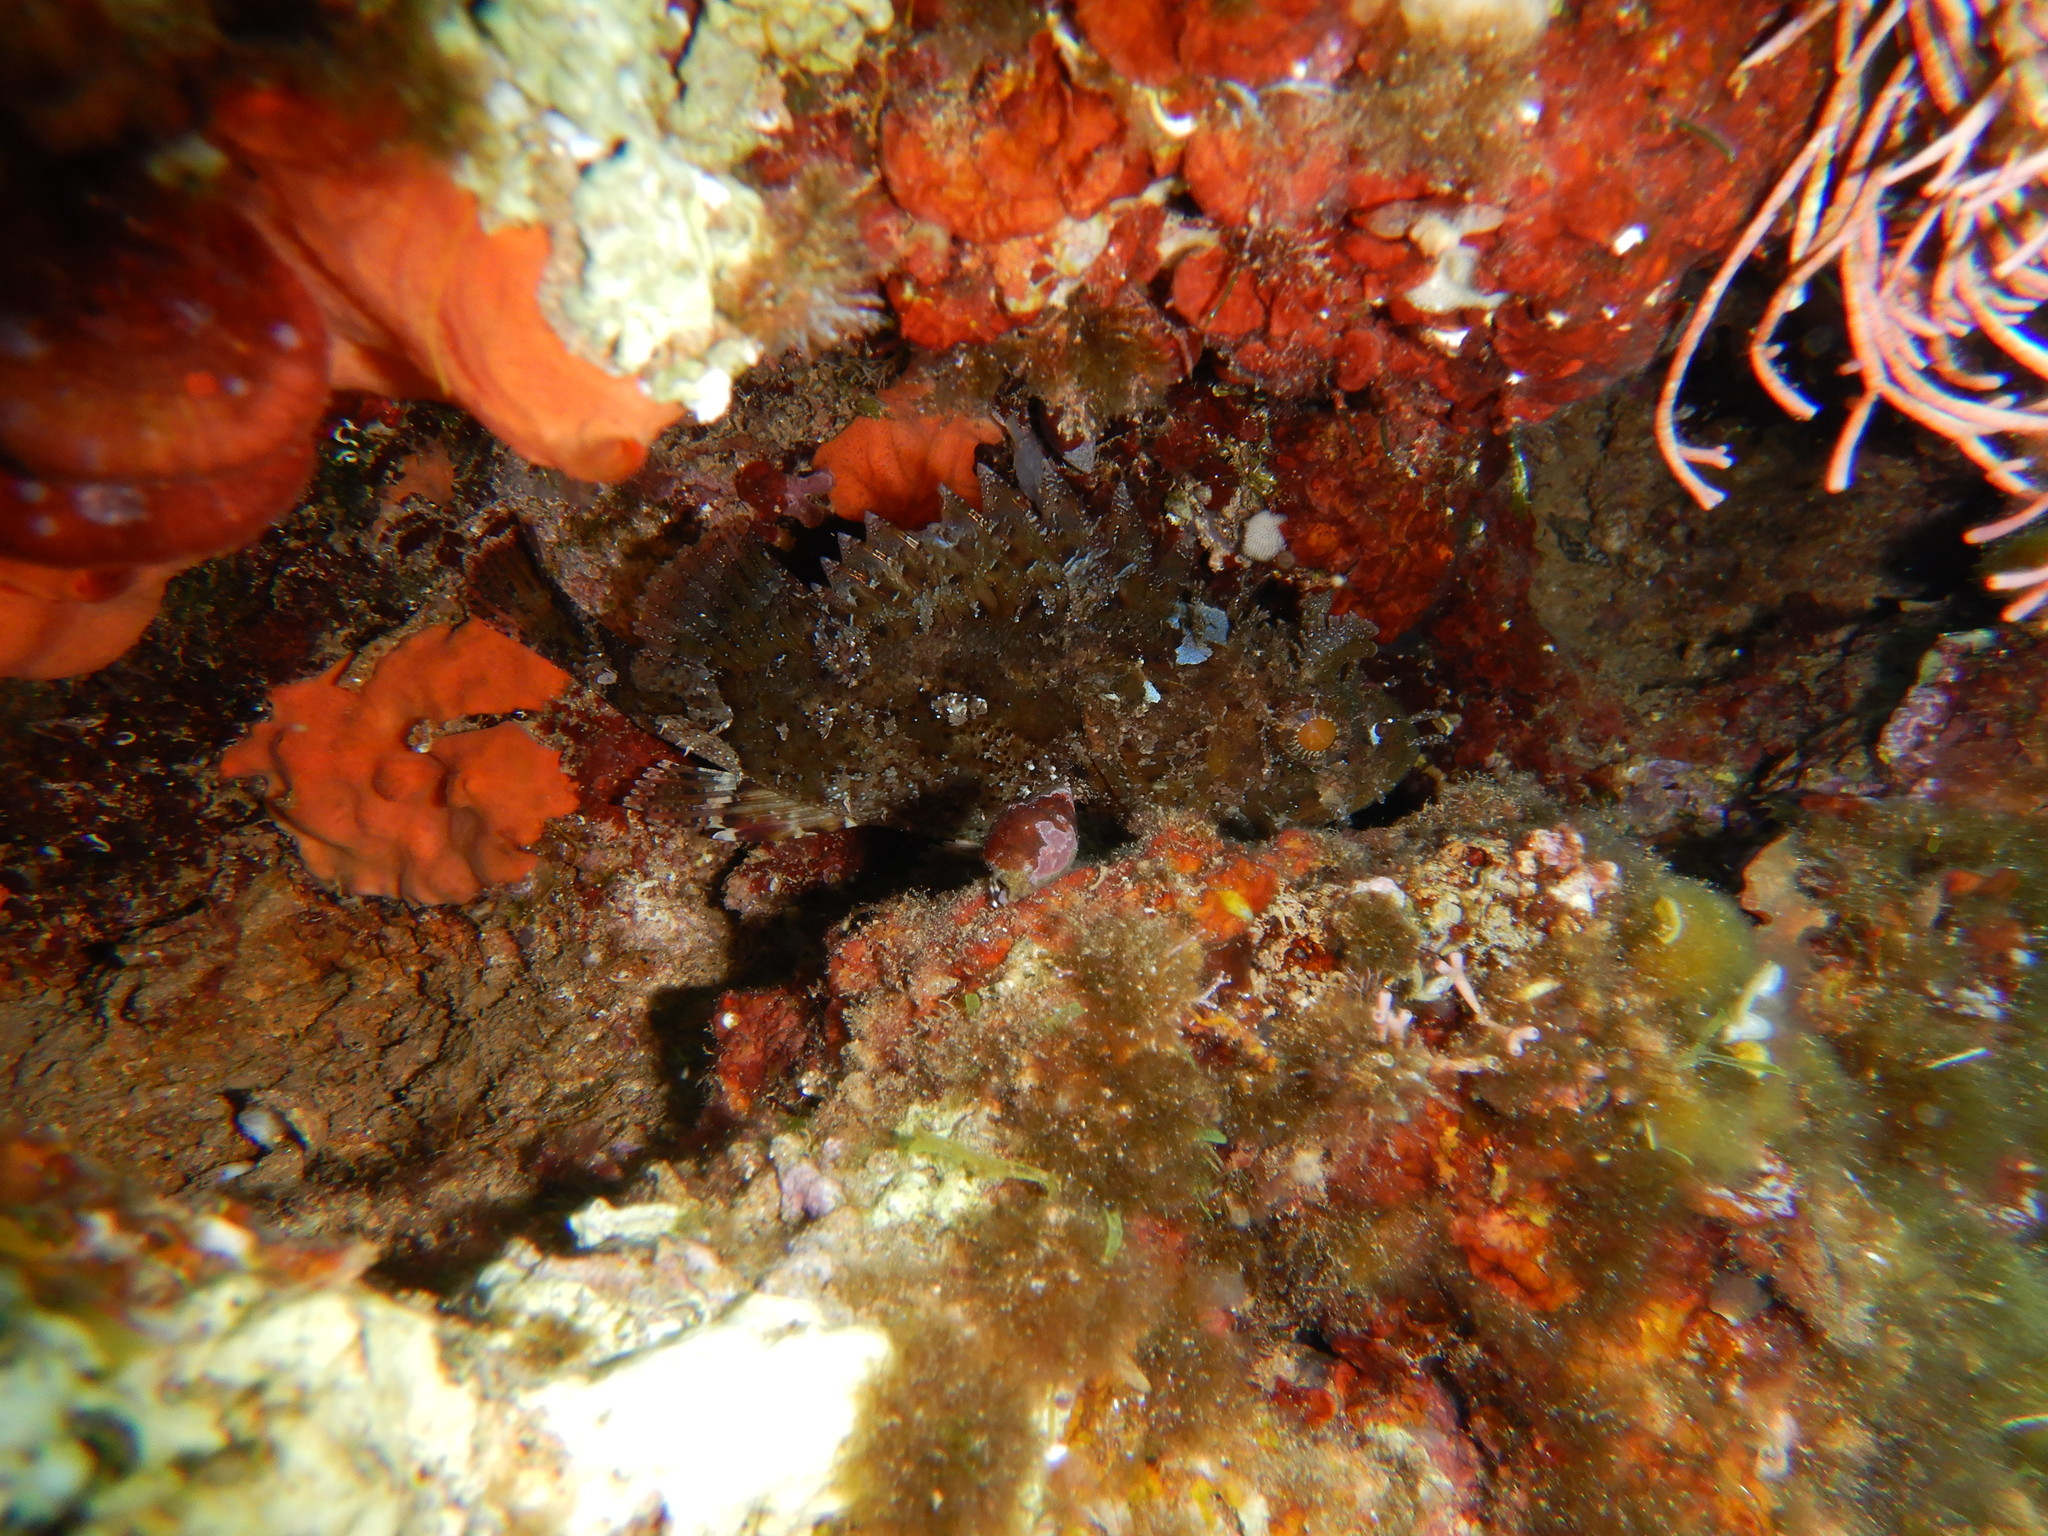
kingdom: Animalia
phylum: Chordata
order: Scorpaeniformes
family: Scorpaenidae
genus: Scorpaena
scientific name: Scorpaena porcus
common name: Black scorpionfish
